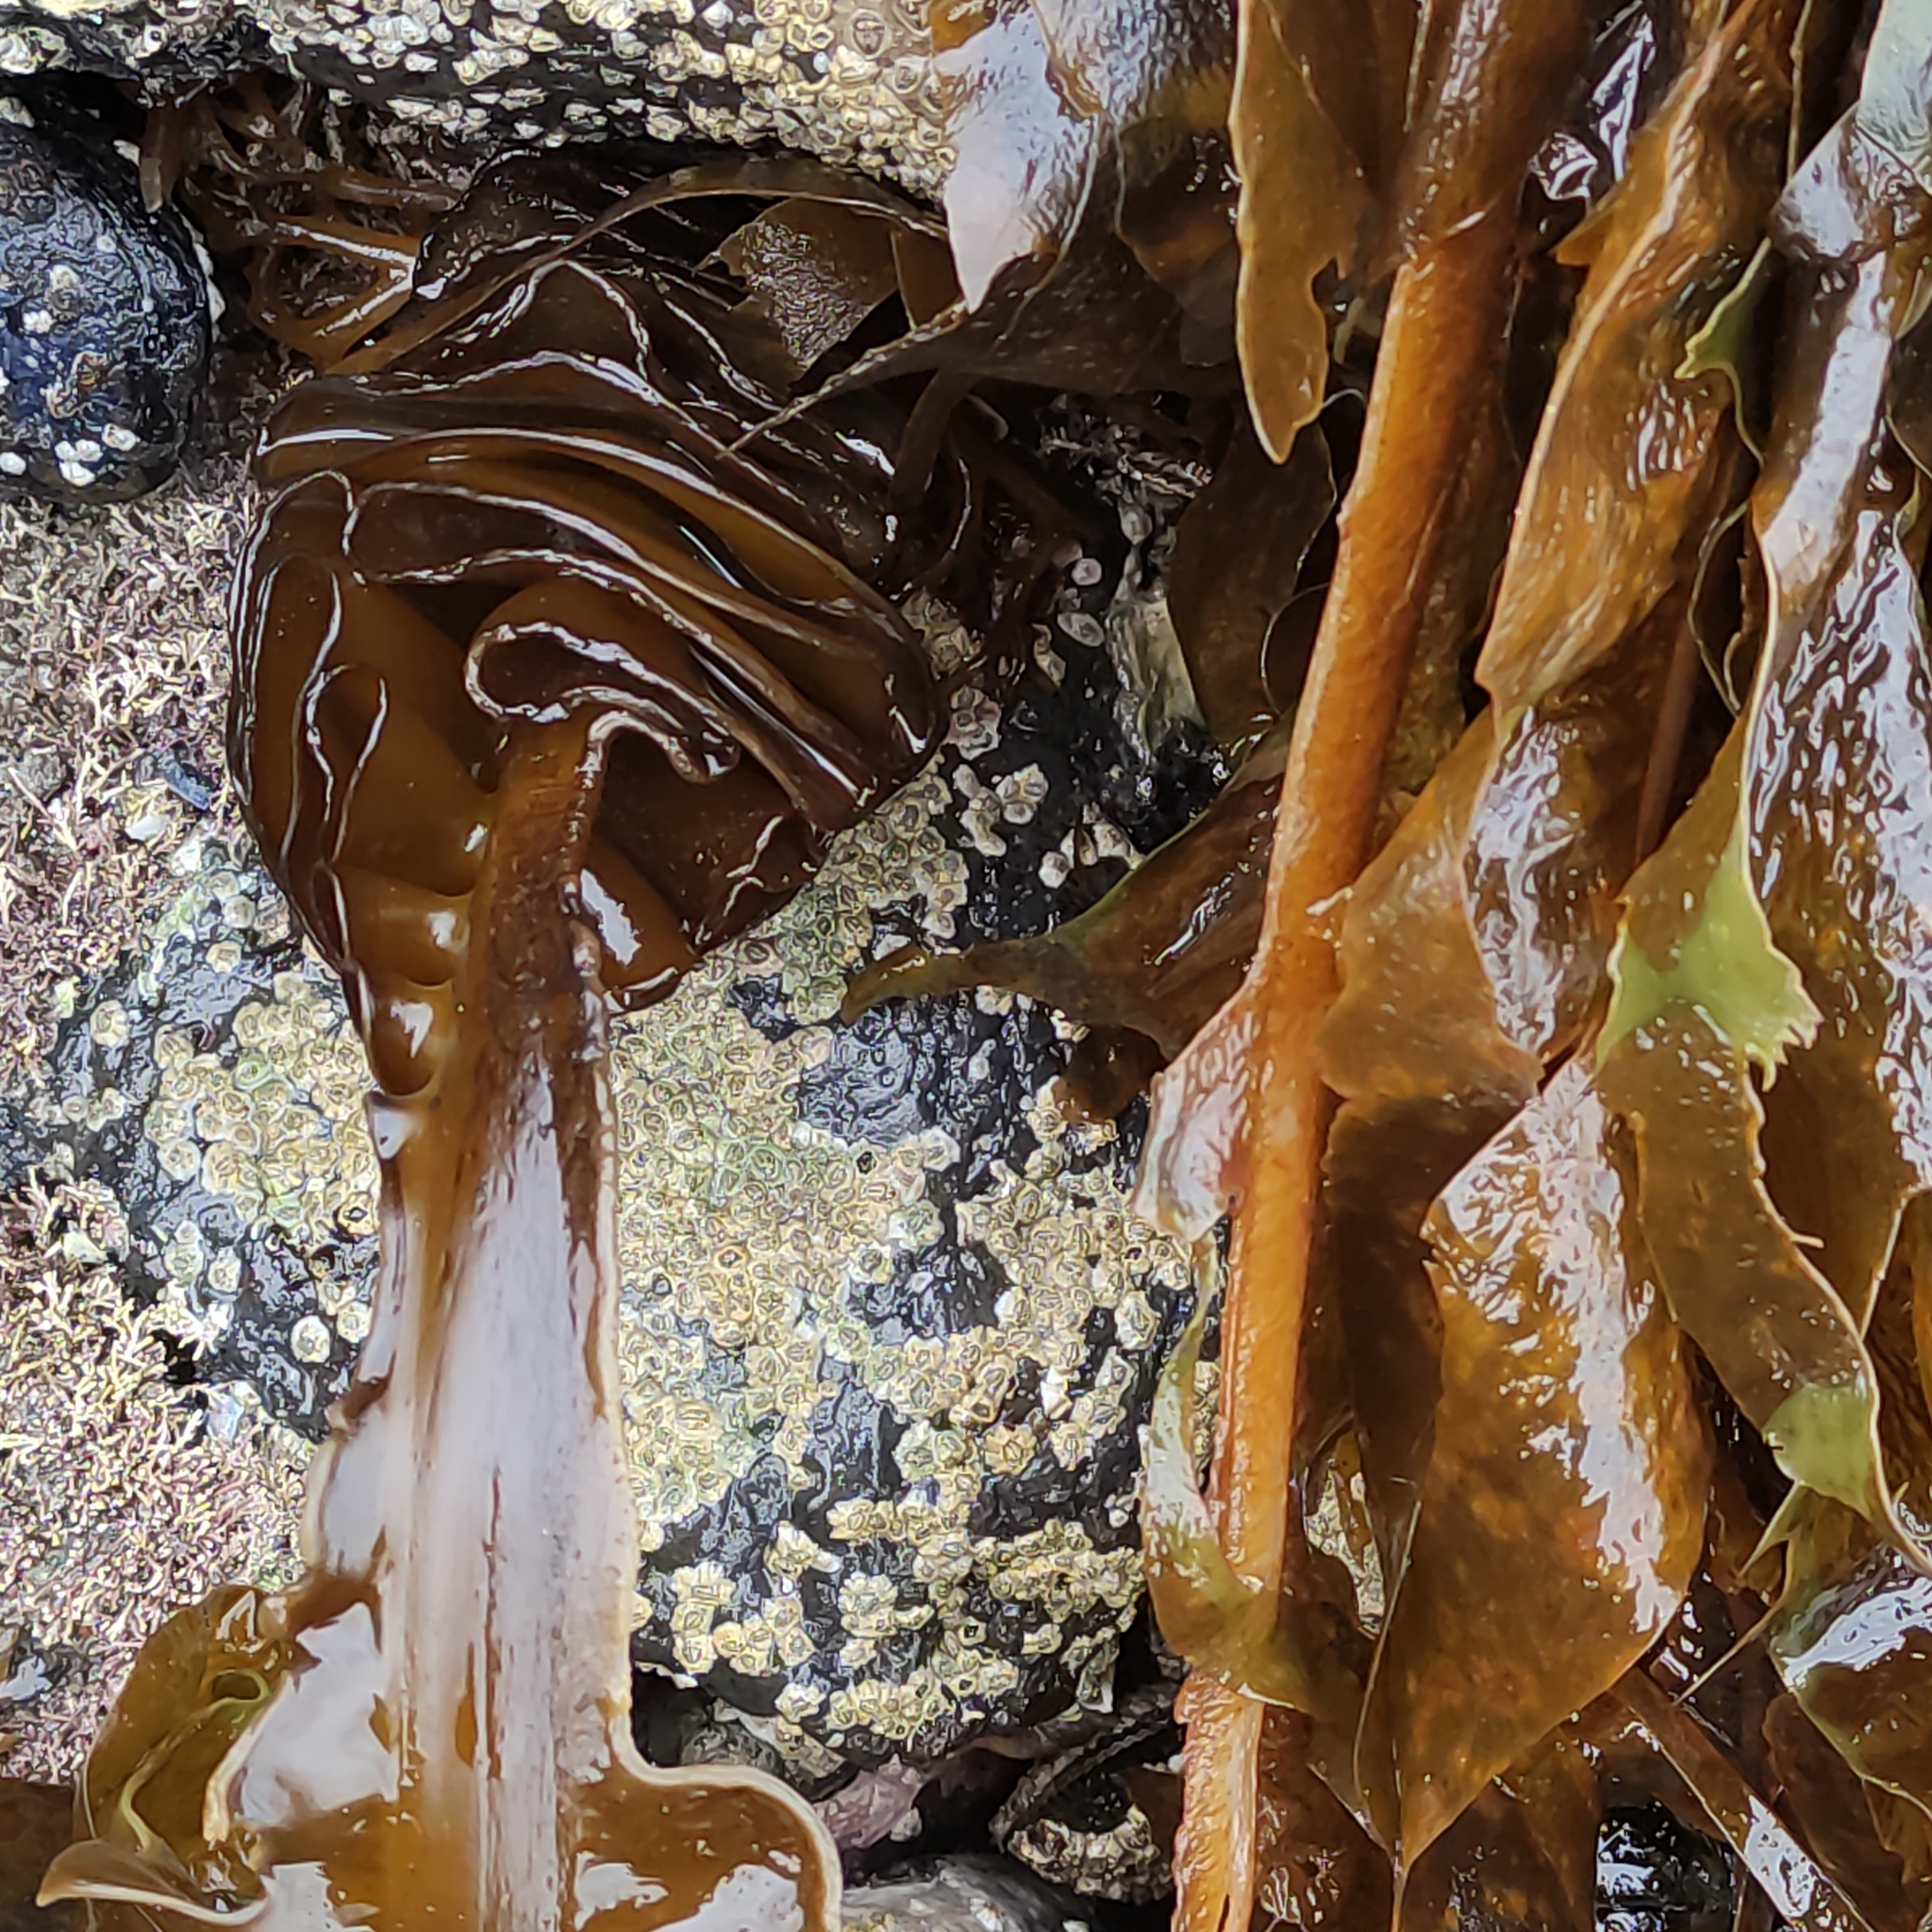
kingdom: Chromista
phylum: Ochrophyta
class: Phaeophyceae
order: Laminariales
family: Alariaceae
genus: Undaria
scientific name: Undaria pinnatifida
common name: Asian kelp
